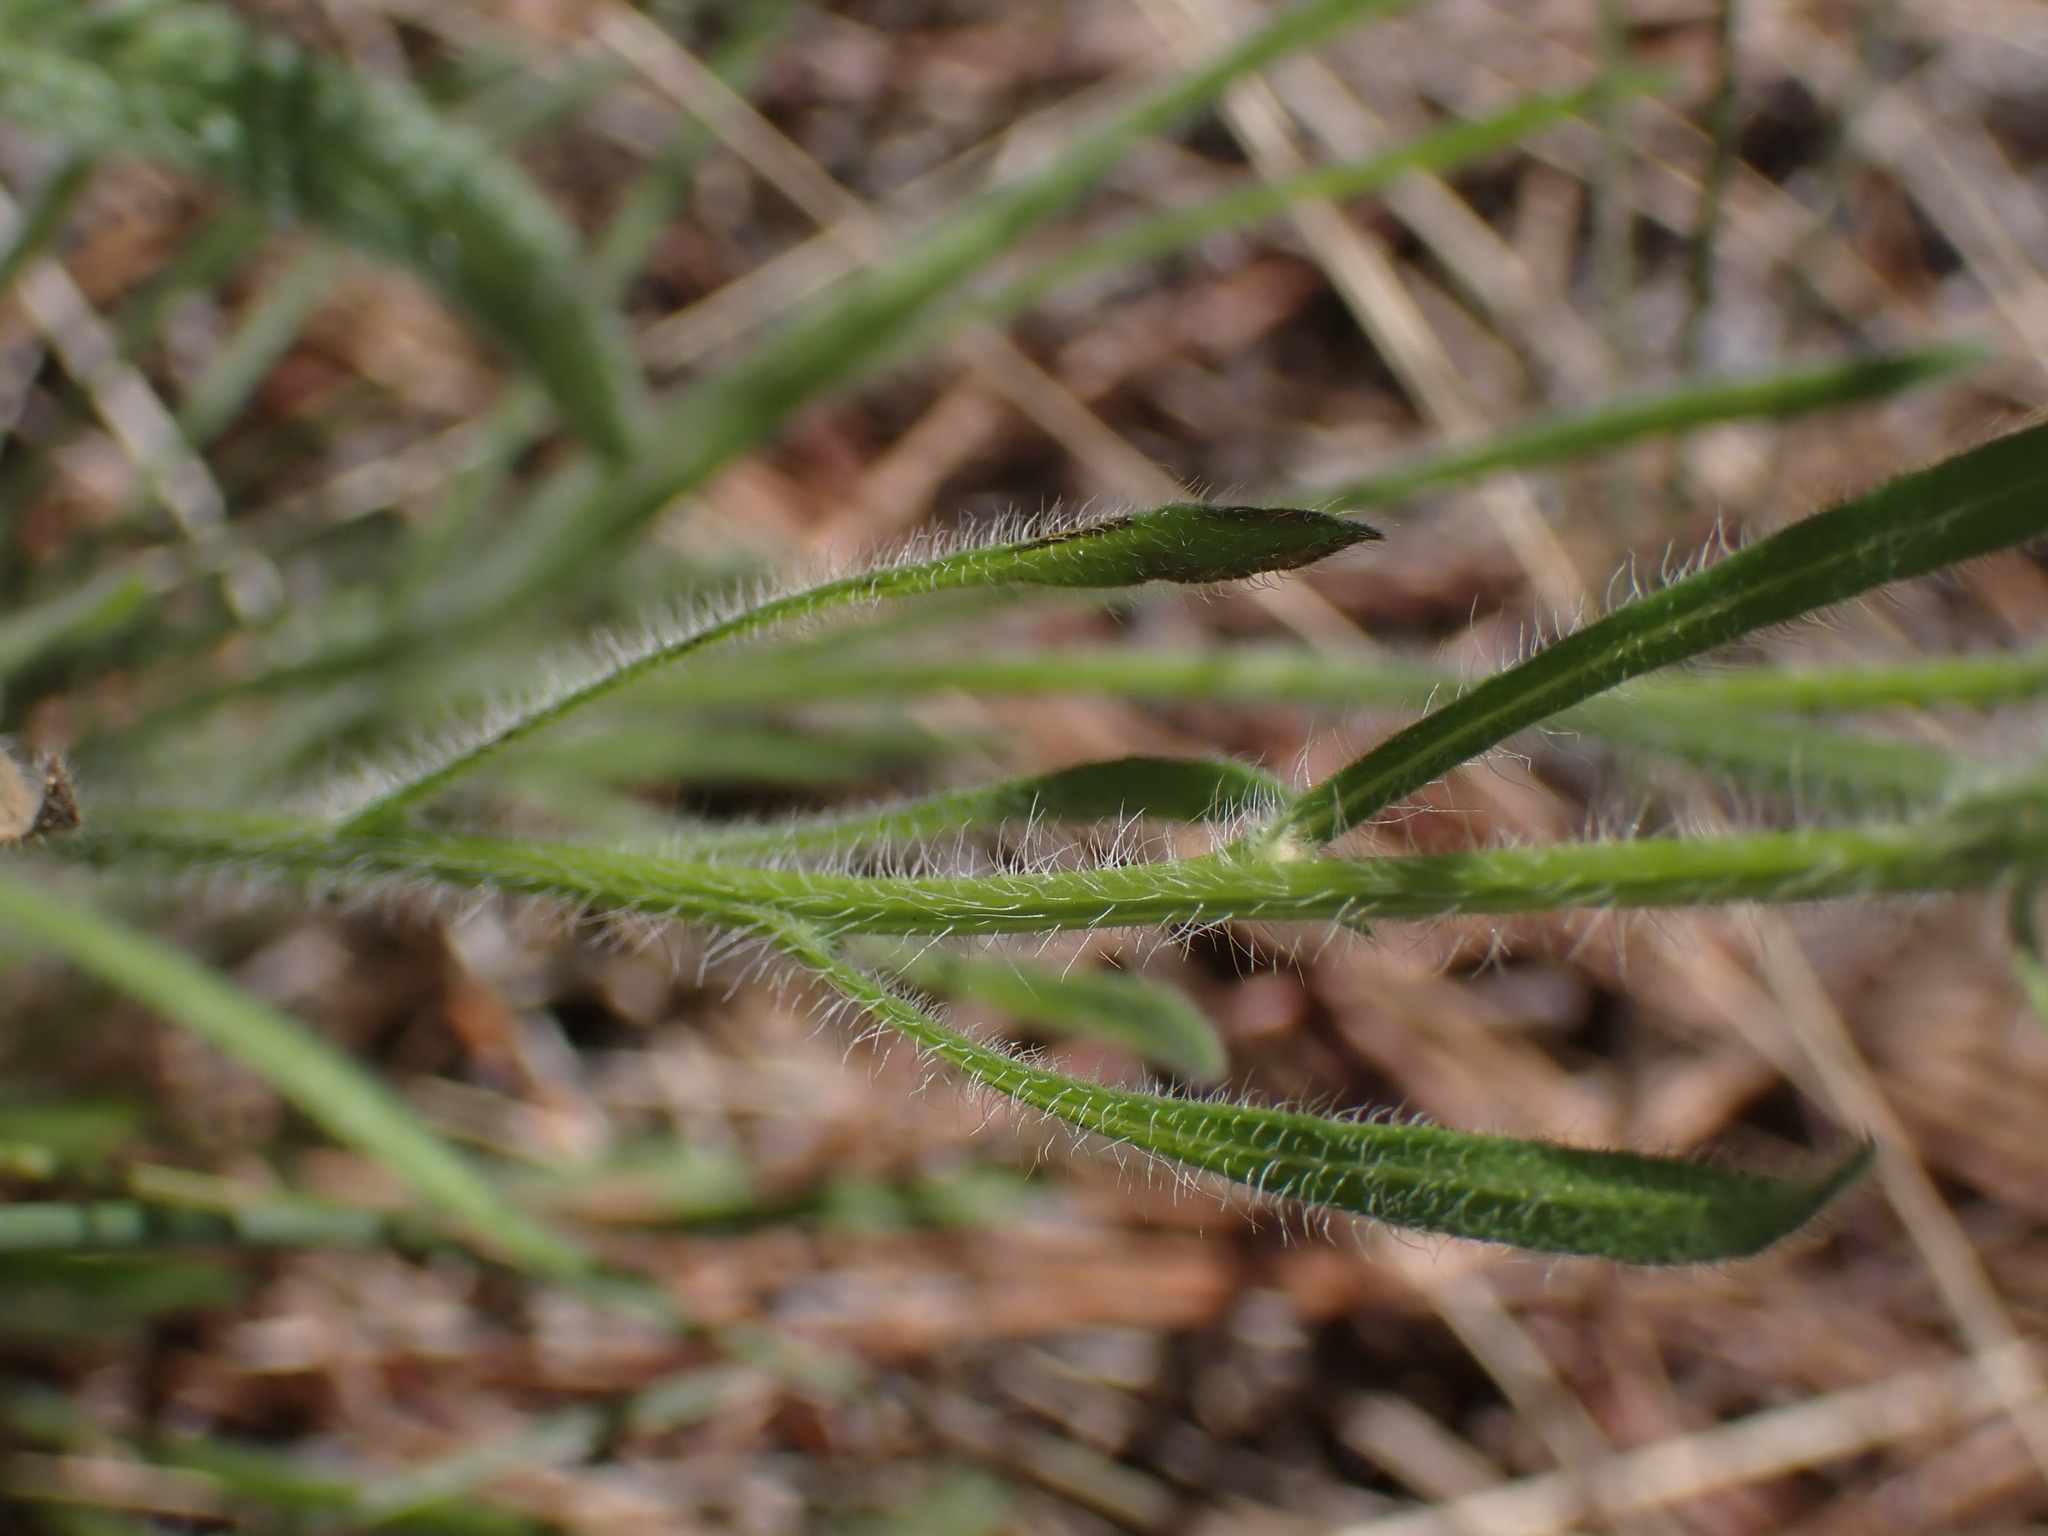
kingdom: Plantae
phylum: Tracheophyta
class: Magnoliopsida
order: Asterales
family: Asteraceae
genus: Erigeron
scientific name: Erigeron pumilus
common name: Shaggy fleabane
